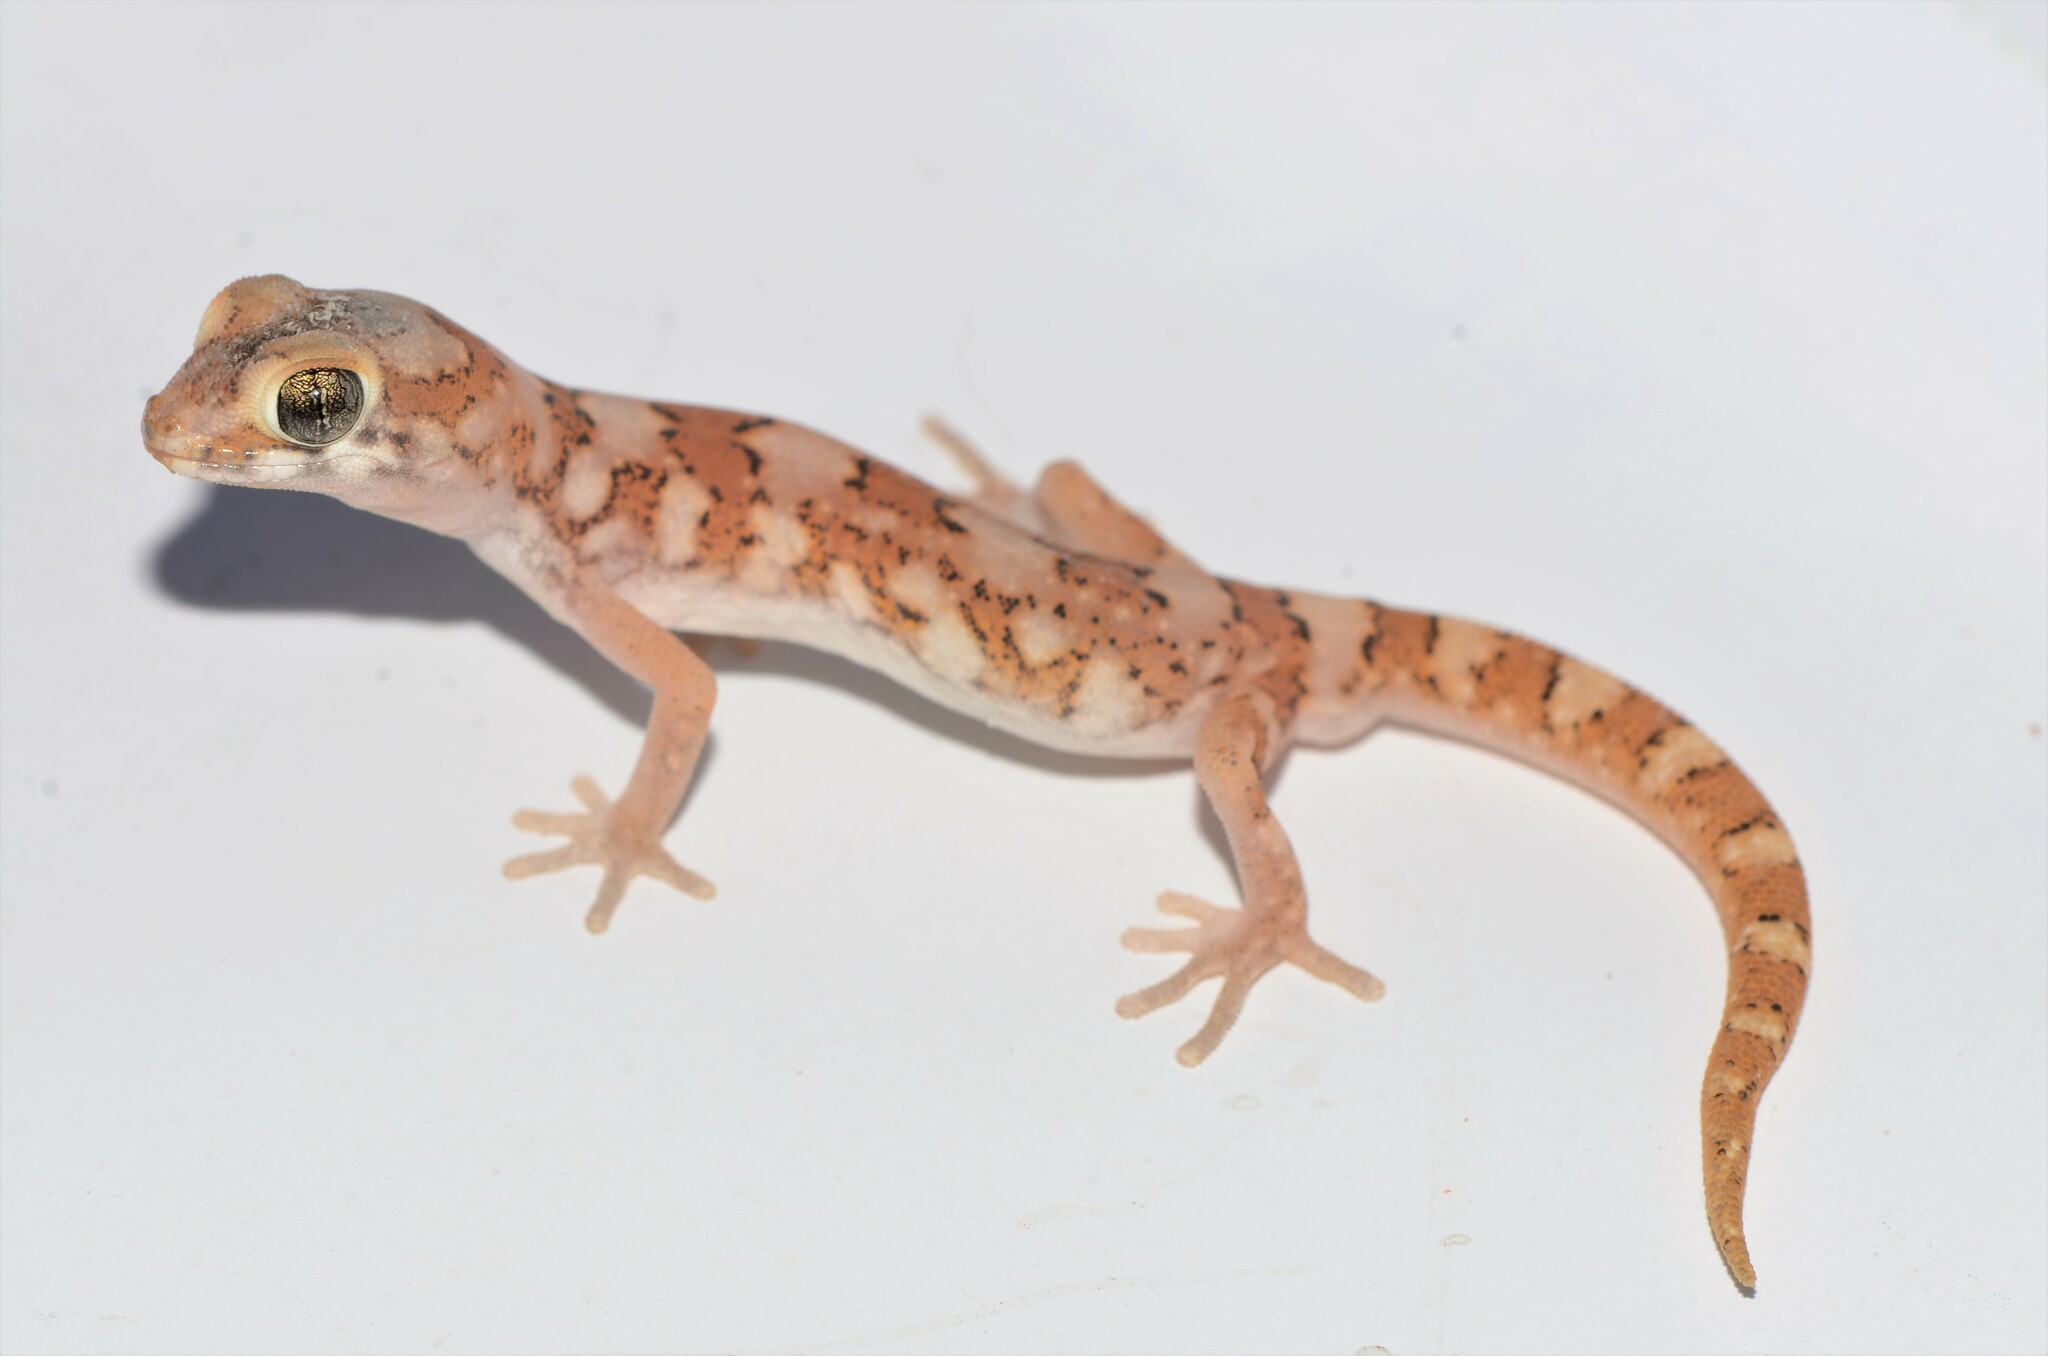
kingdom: Animalia
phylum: Chordata
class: Squamata
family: Gekkonidae
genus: Pachydactylus
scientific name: Pachydactylus latirostris
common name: Quartz gecko
